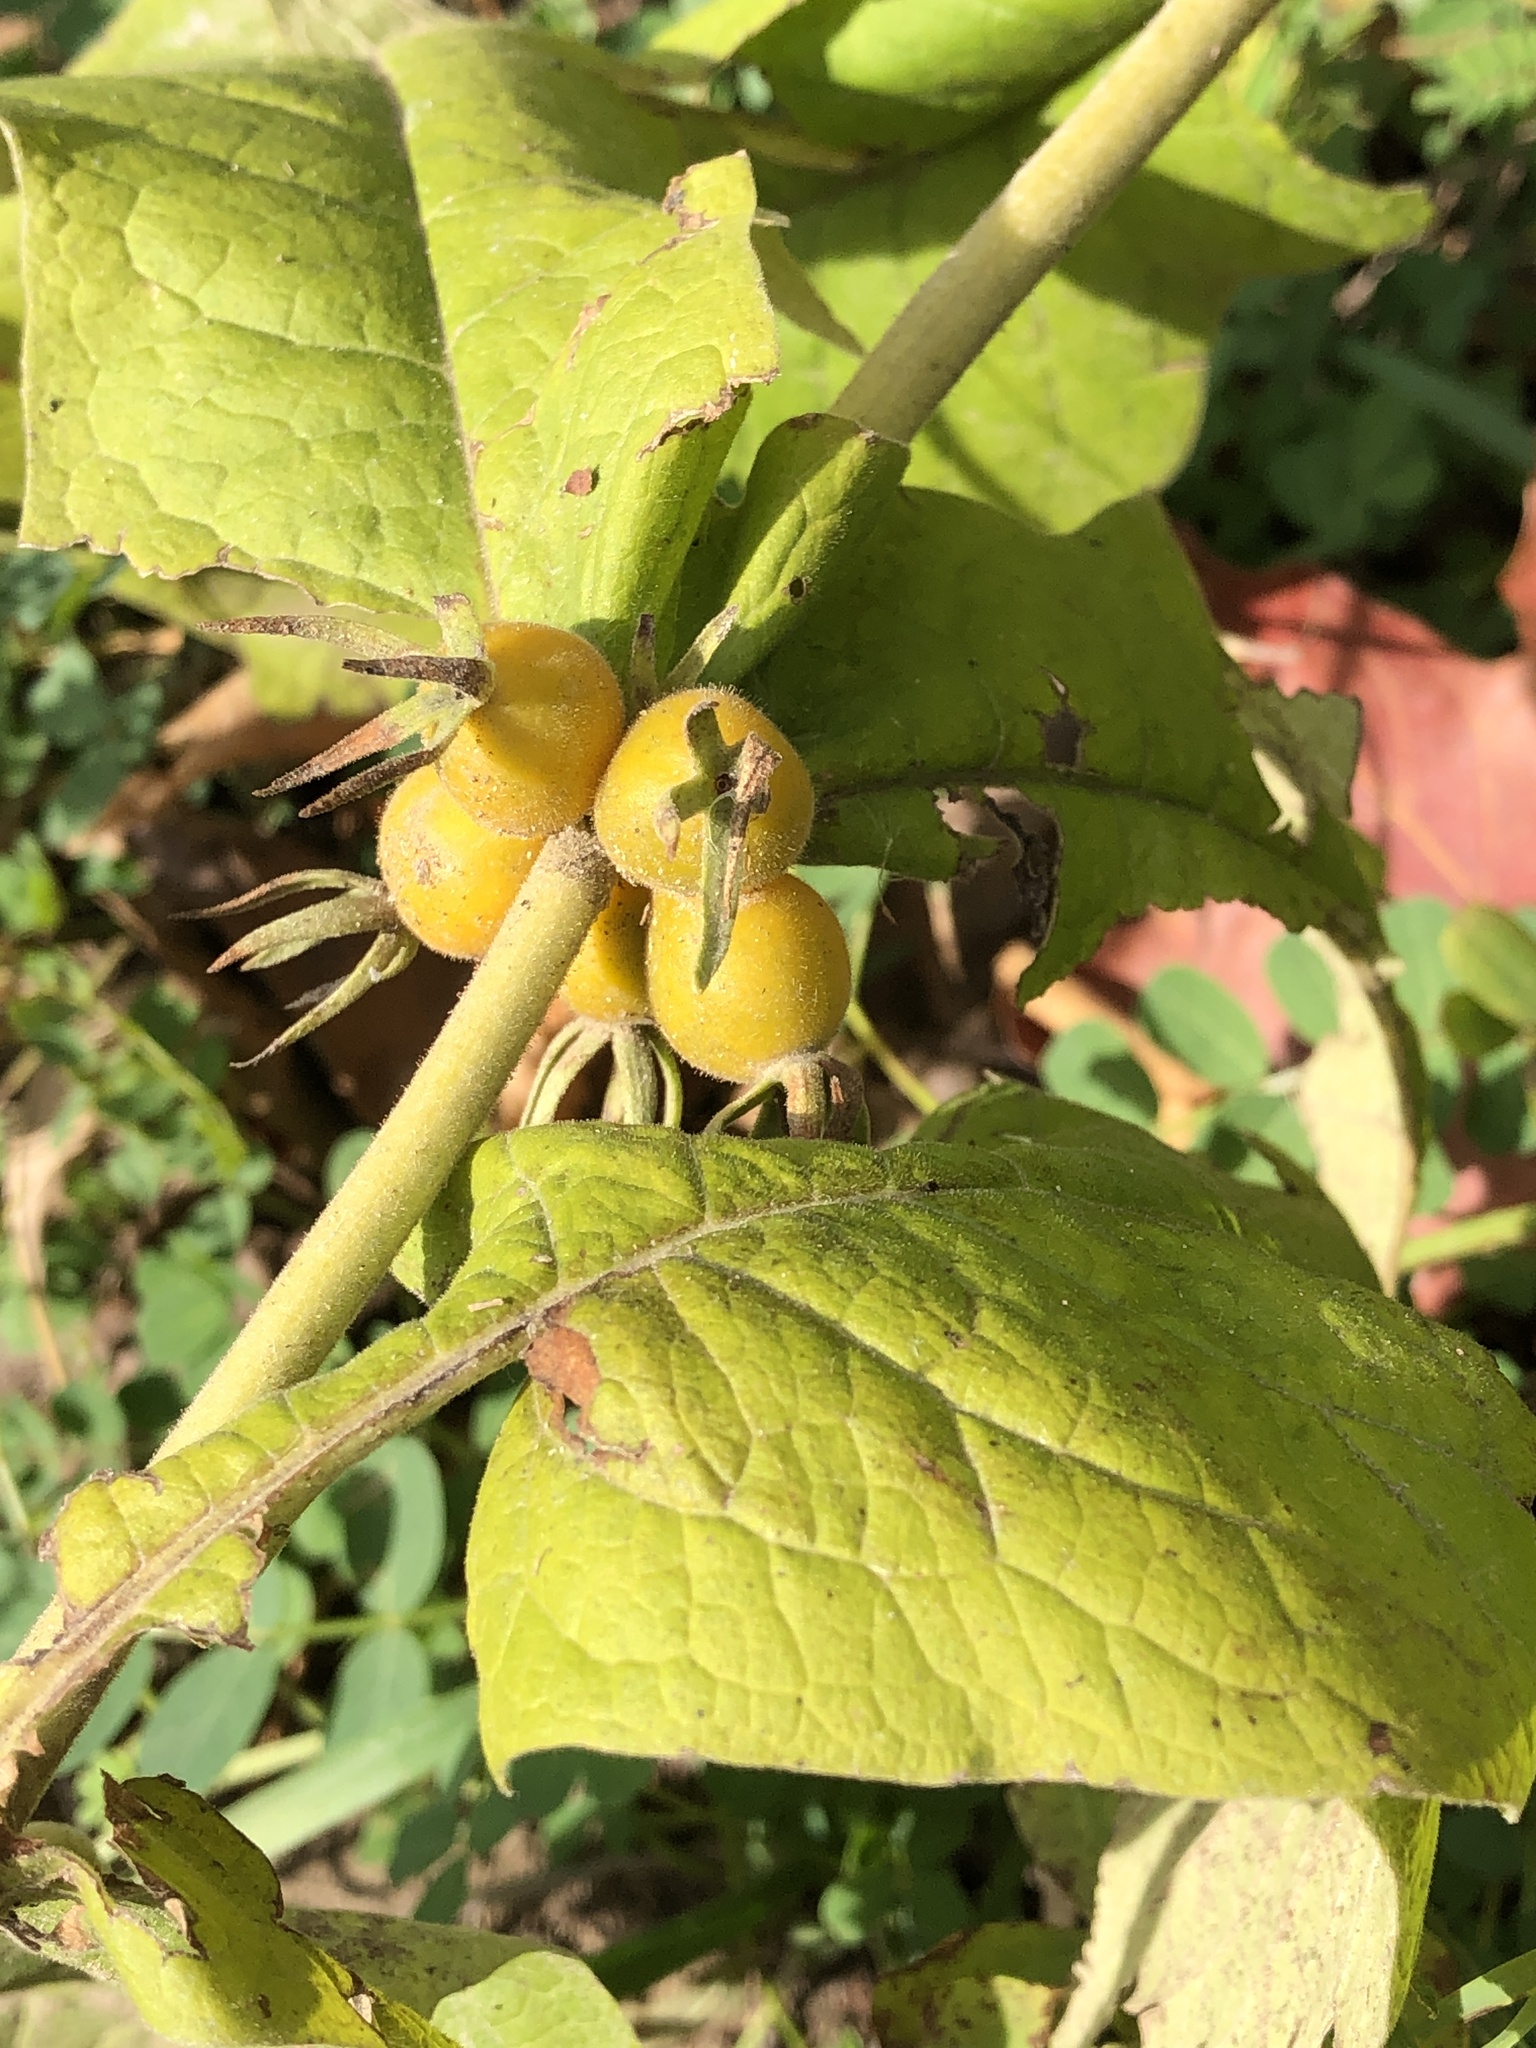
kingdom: Plantae
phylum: Tracheophyta
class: Magnoliopsida
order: Dipsacales
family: Caprifoliaceae
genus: Triosteum
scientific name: Triosteum perfoliatum
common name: Common horse-gentian
